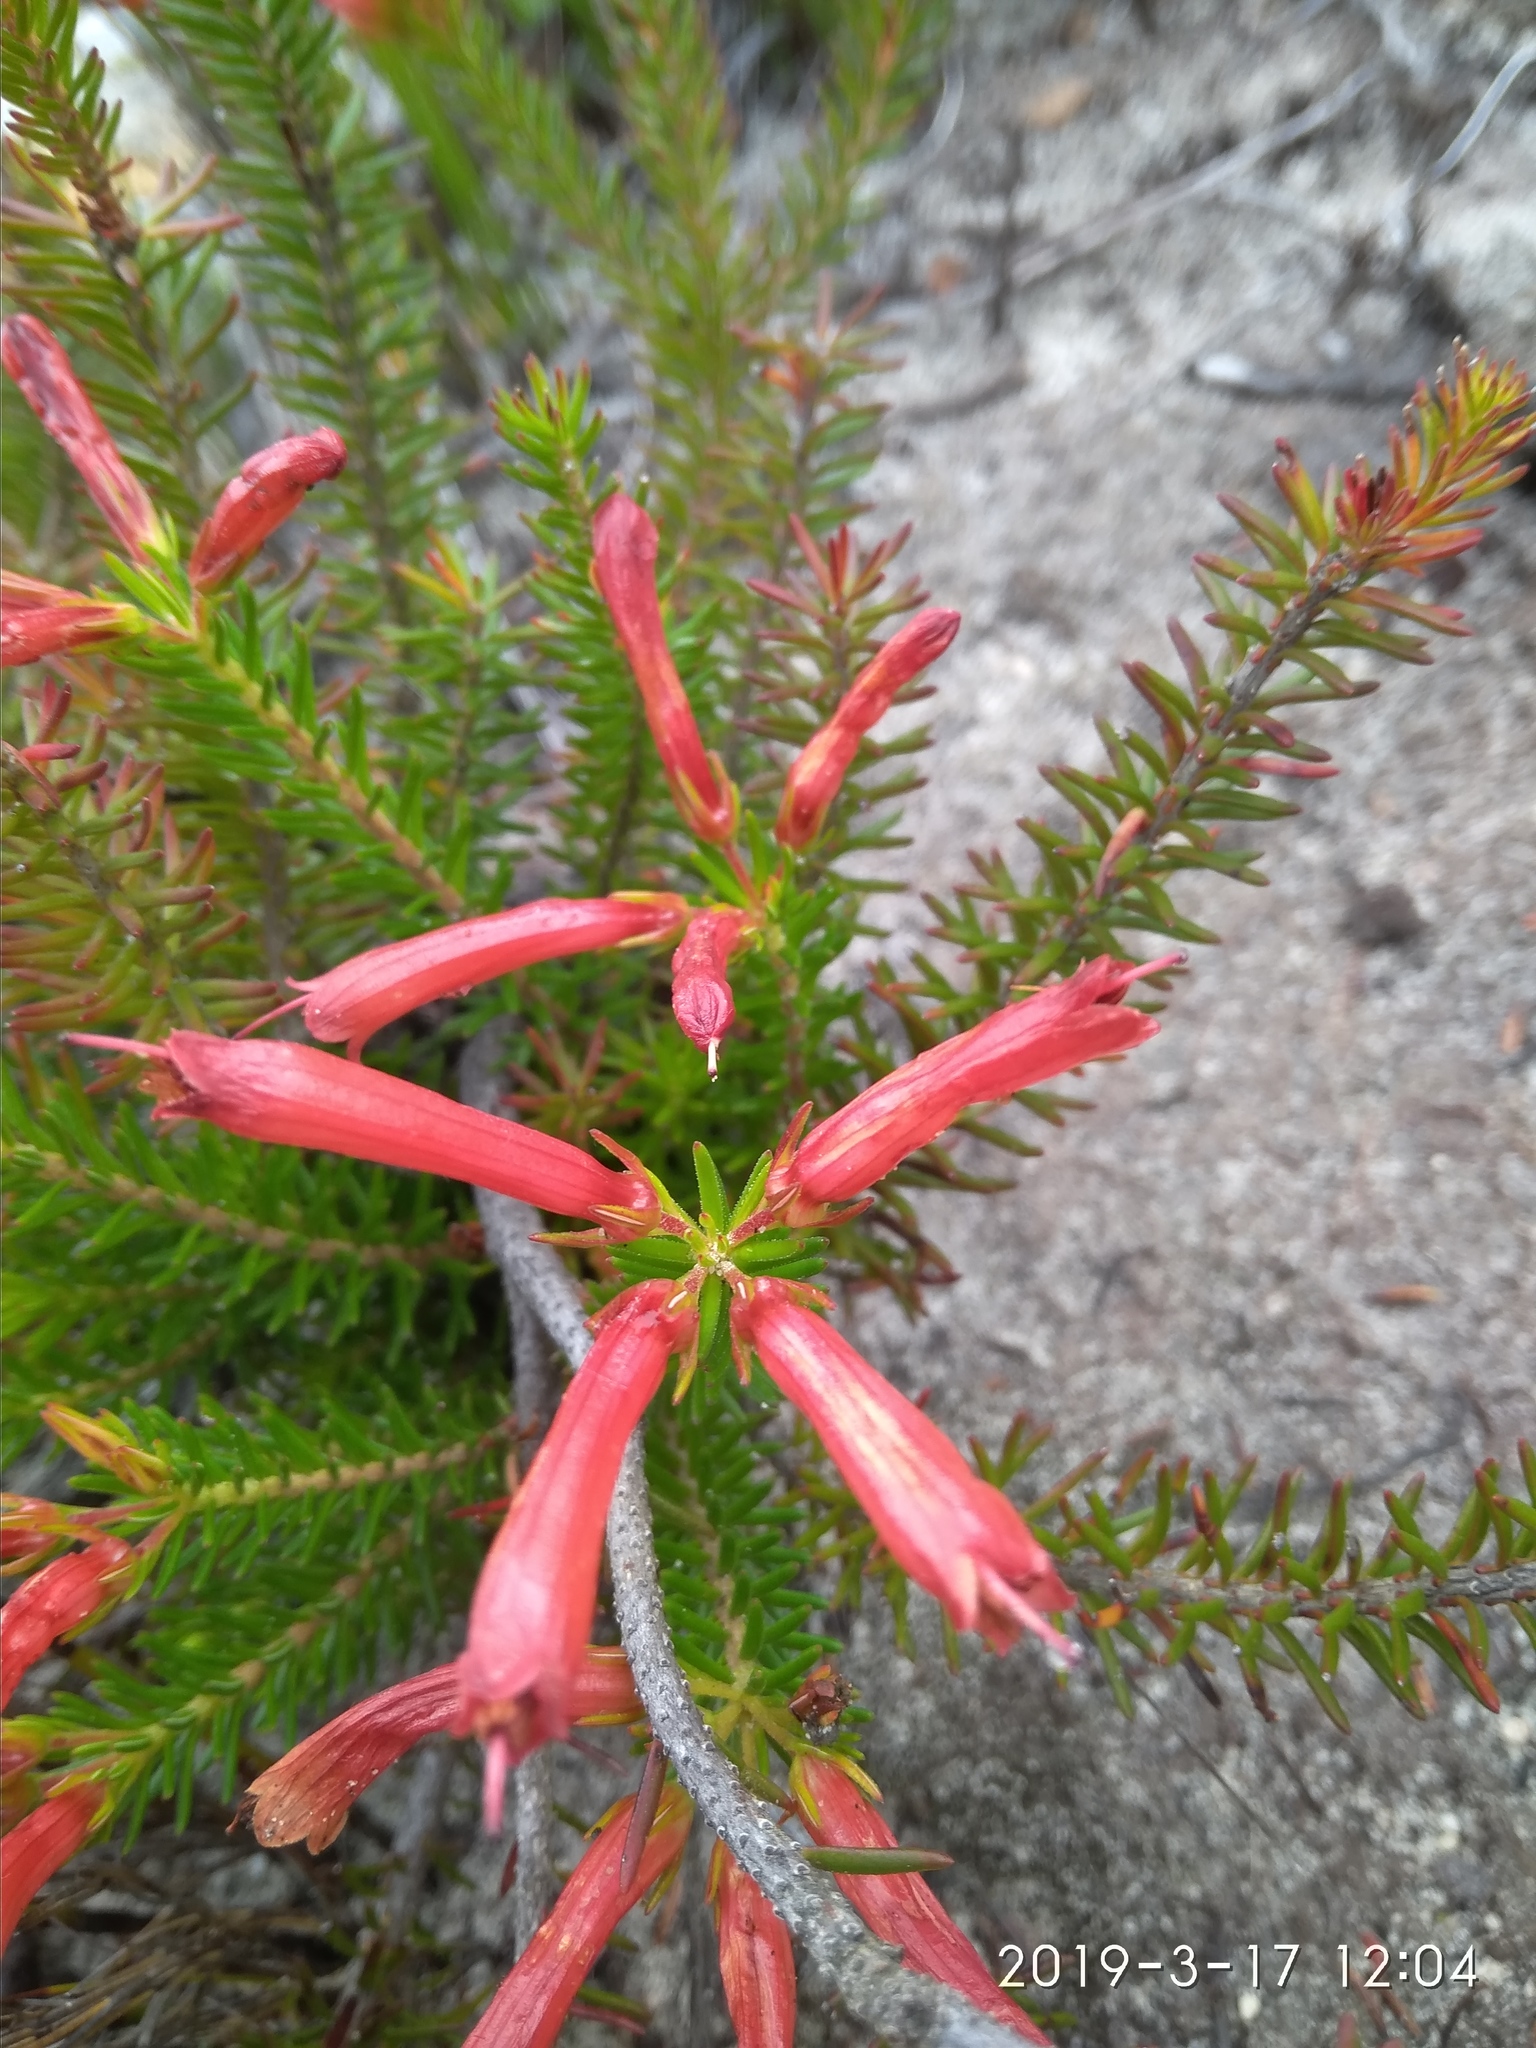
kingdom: Plantae
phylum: Tracheophyta
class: Magnoliopsida
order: Ericales
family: Ericaceae
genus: Erica
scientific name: Erica nevillei
